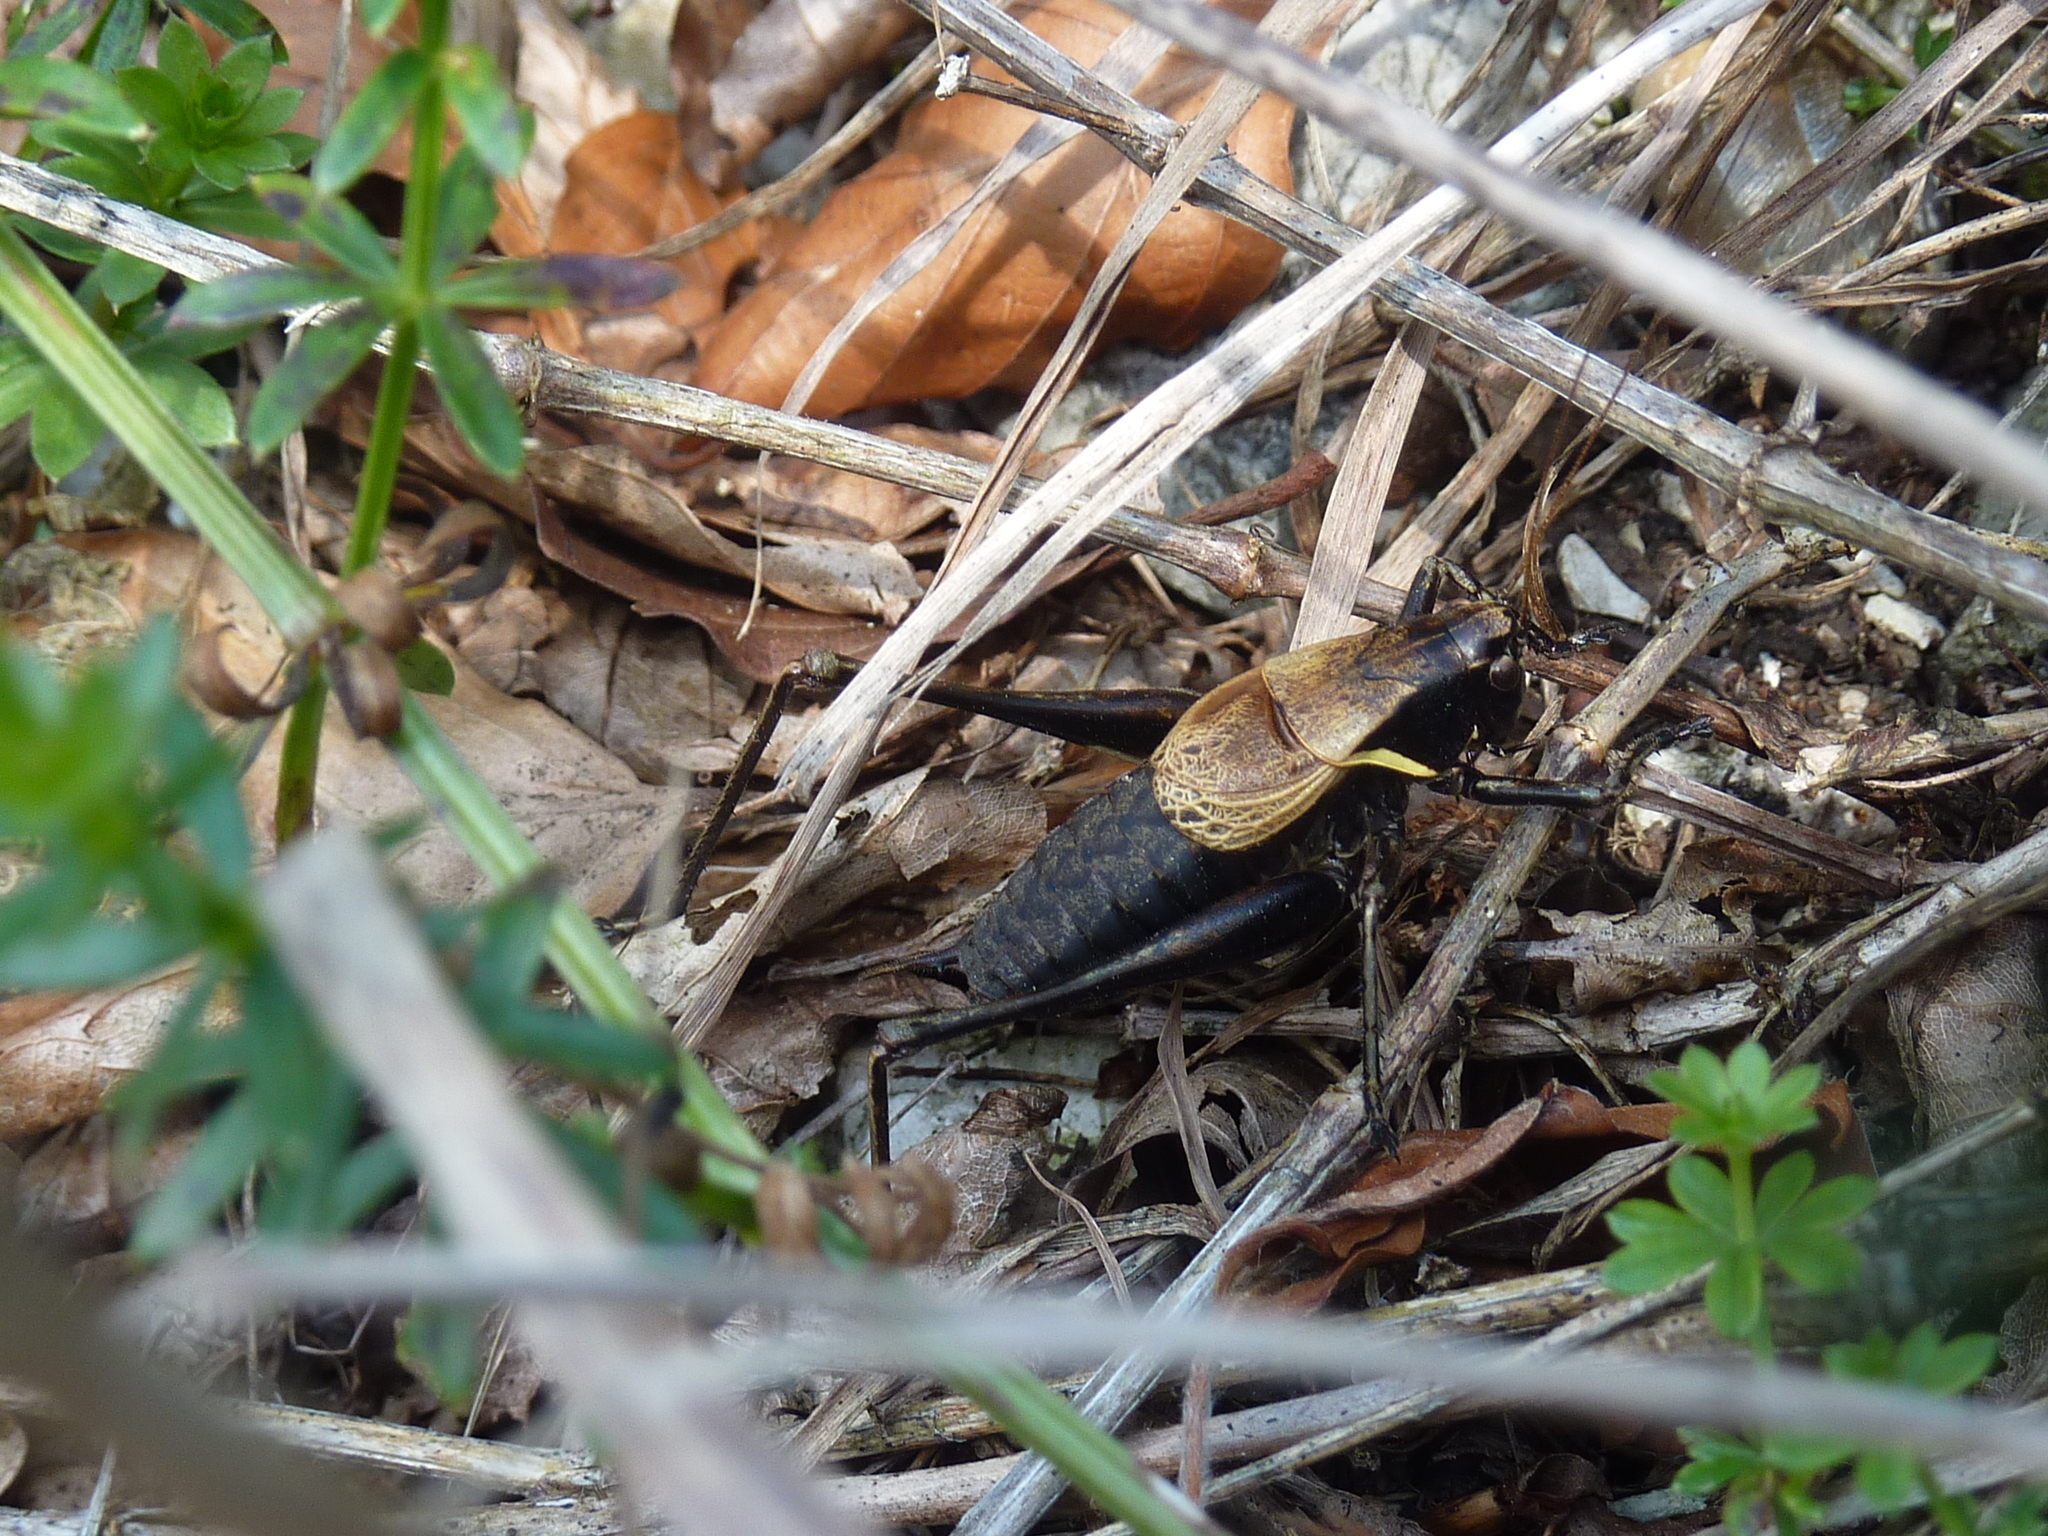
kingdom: Animalia
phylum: Arthropoda
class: Insecta
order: Orthoptera
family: Tettigoniidae
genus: Pholidoptera
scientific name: Pholidoptera aptera
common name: Alpine dark bush-cricket
